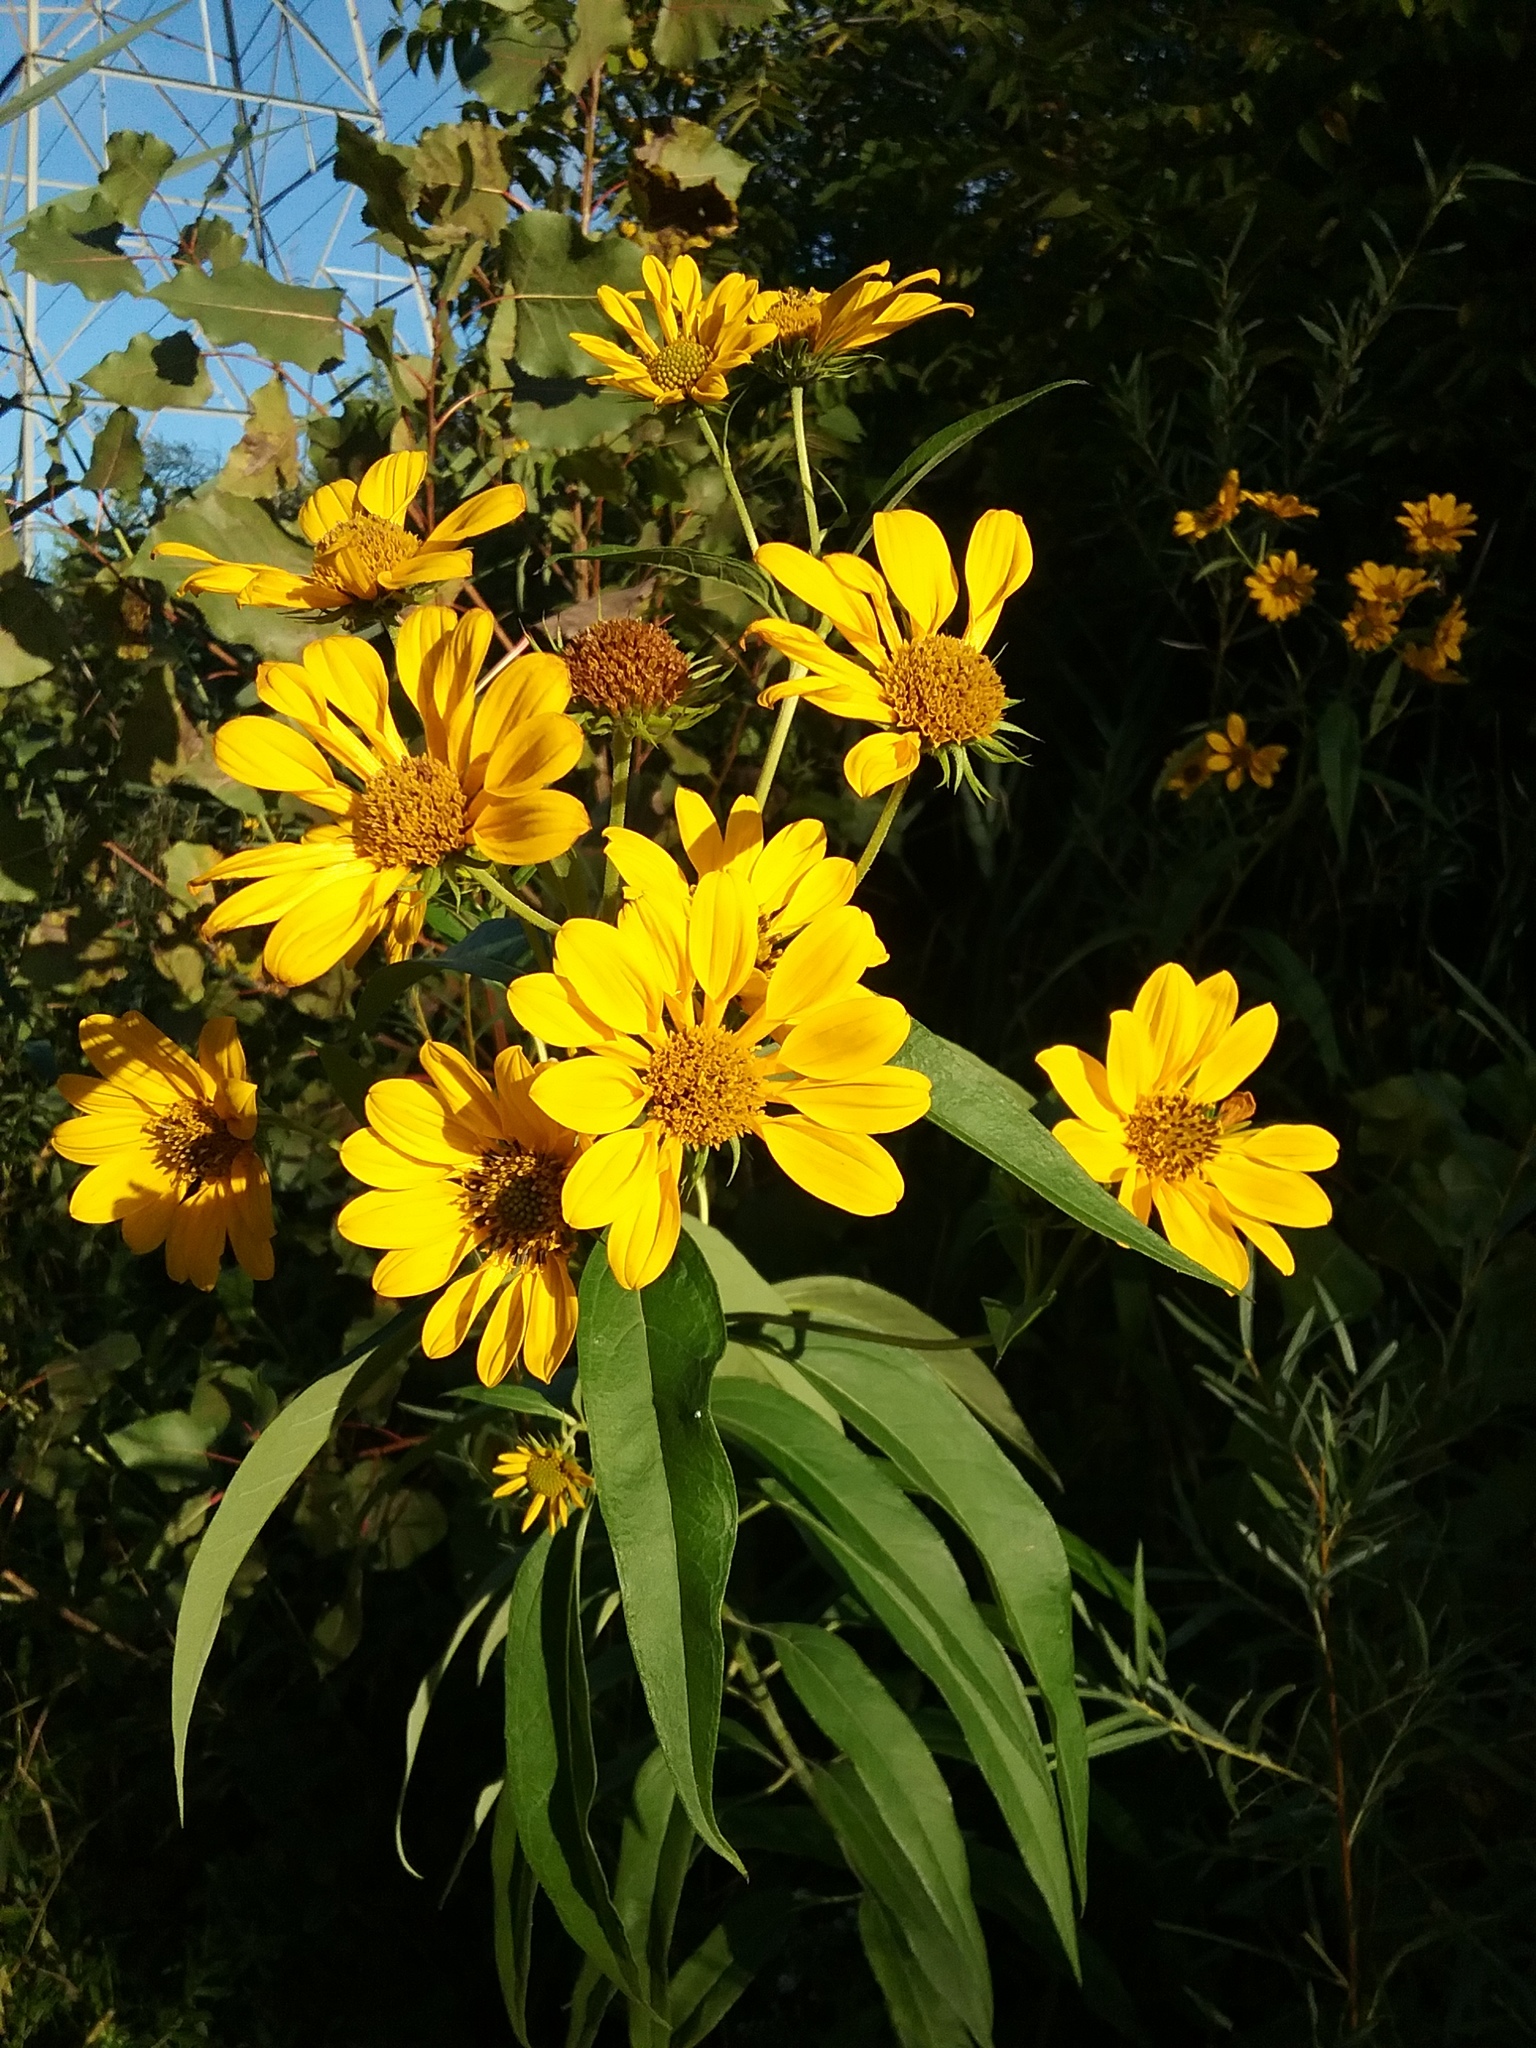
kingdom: Plantae
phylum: Tracheophyta
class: Magnoliopsida
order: Asterales
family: Asteraceae
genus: Helianthus
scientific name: Helianthus grosseserratus
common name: Sawtooth sunflower
